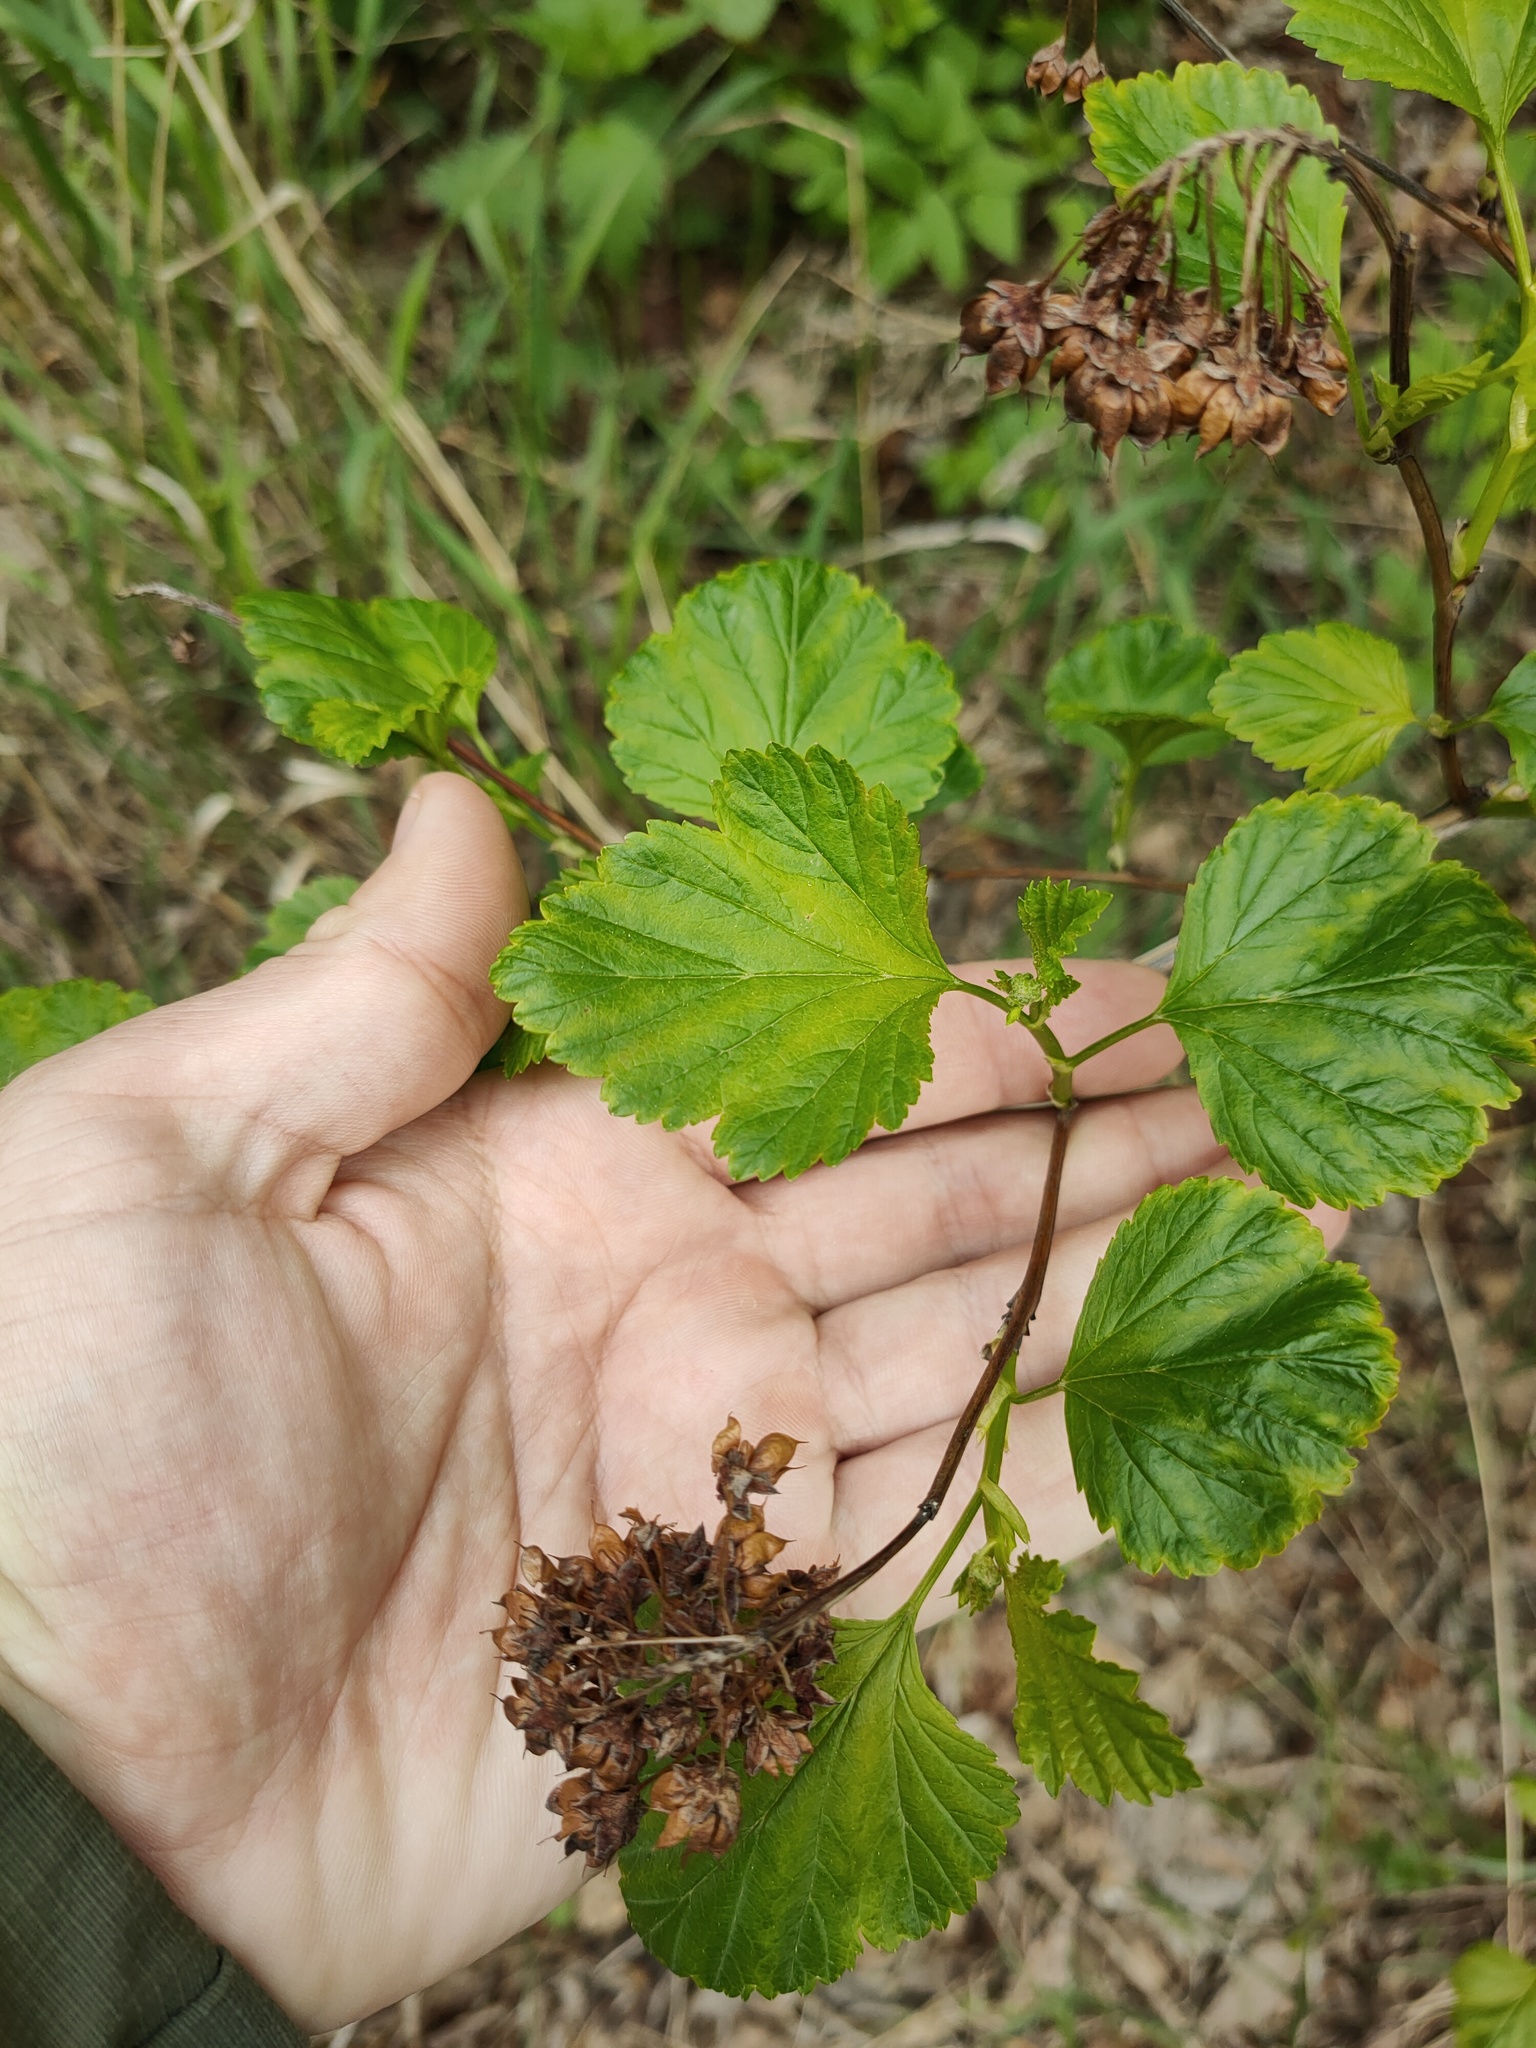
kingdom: Plantae
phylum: Tracheophyta
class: Magnoliopsida
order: Rosales
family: Rosaceae
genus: Physocarpus
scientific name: Physocarpus opulifolius
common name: Ninebark
